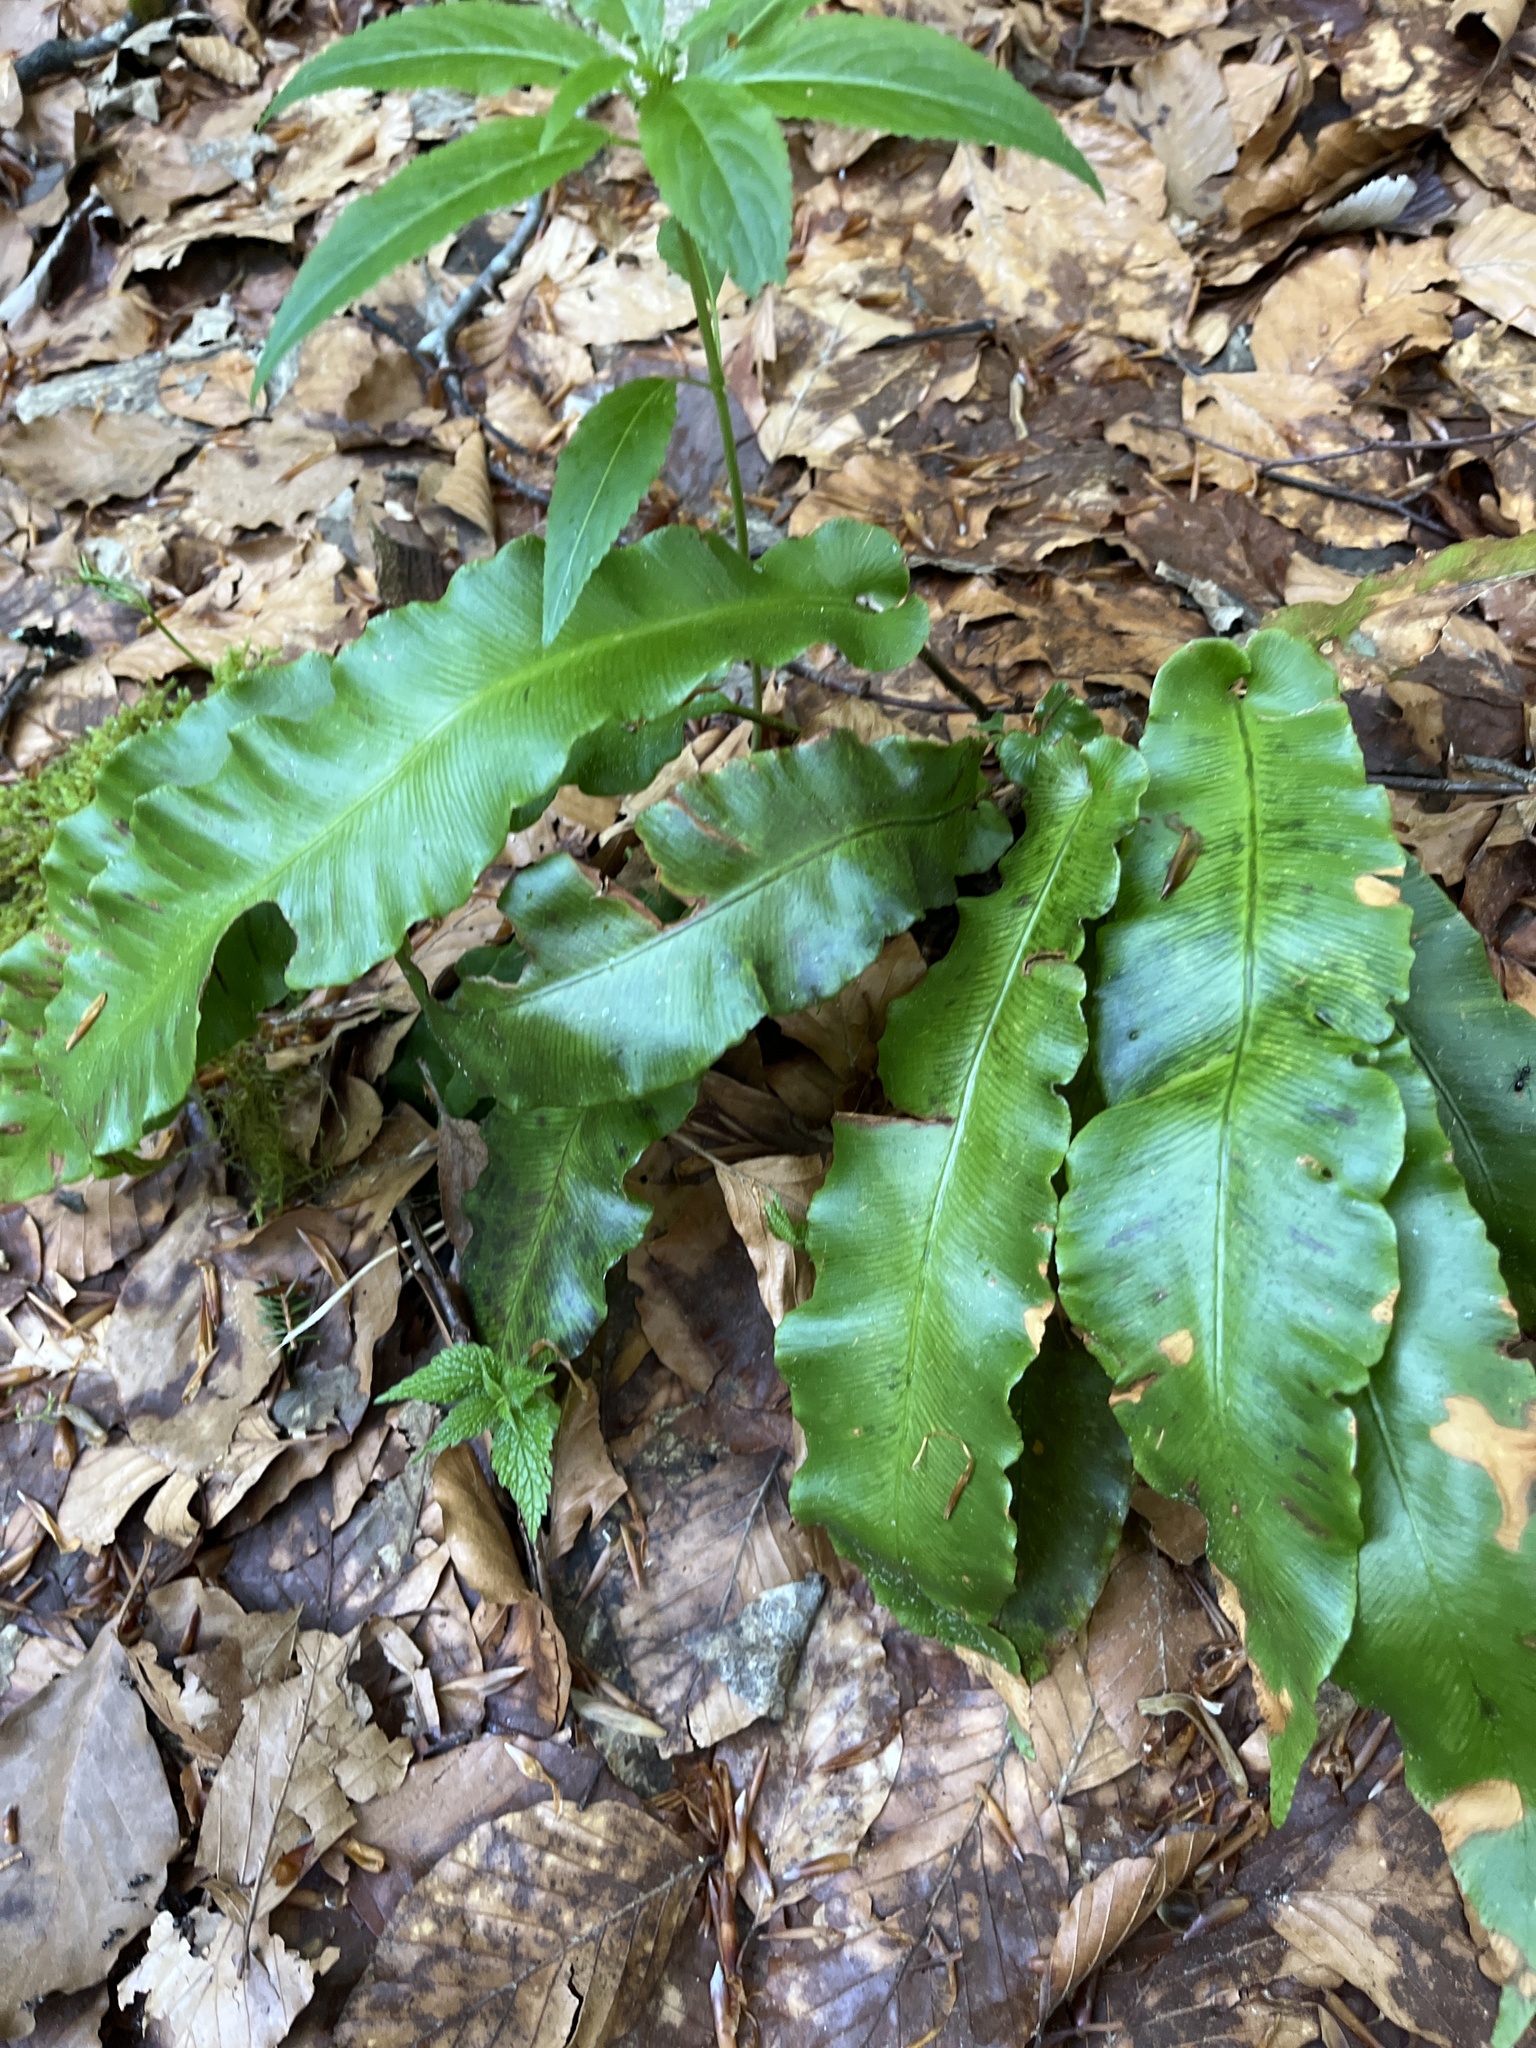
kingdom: Plantae
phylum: Tracheophyta
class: Polypodiopsida
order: Polypodiales
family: Aspleniaceae
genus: Asplenium
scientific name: Asplenium scolopendrium
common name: Hart's-tongue fern
